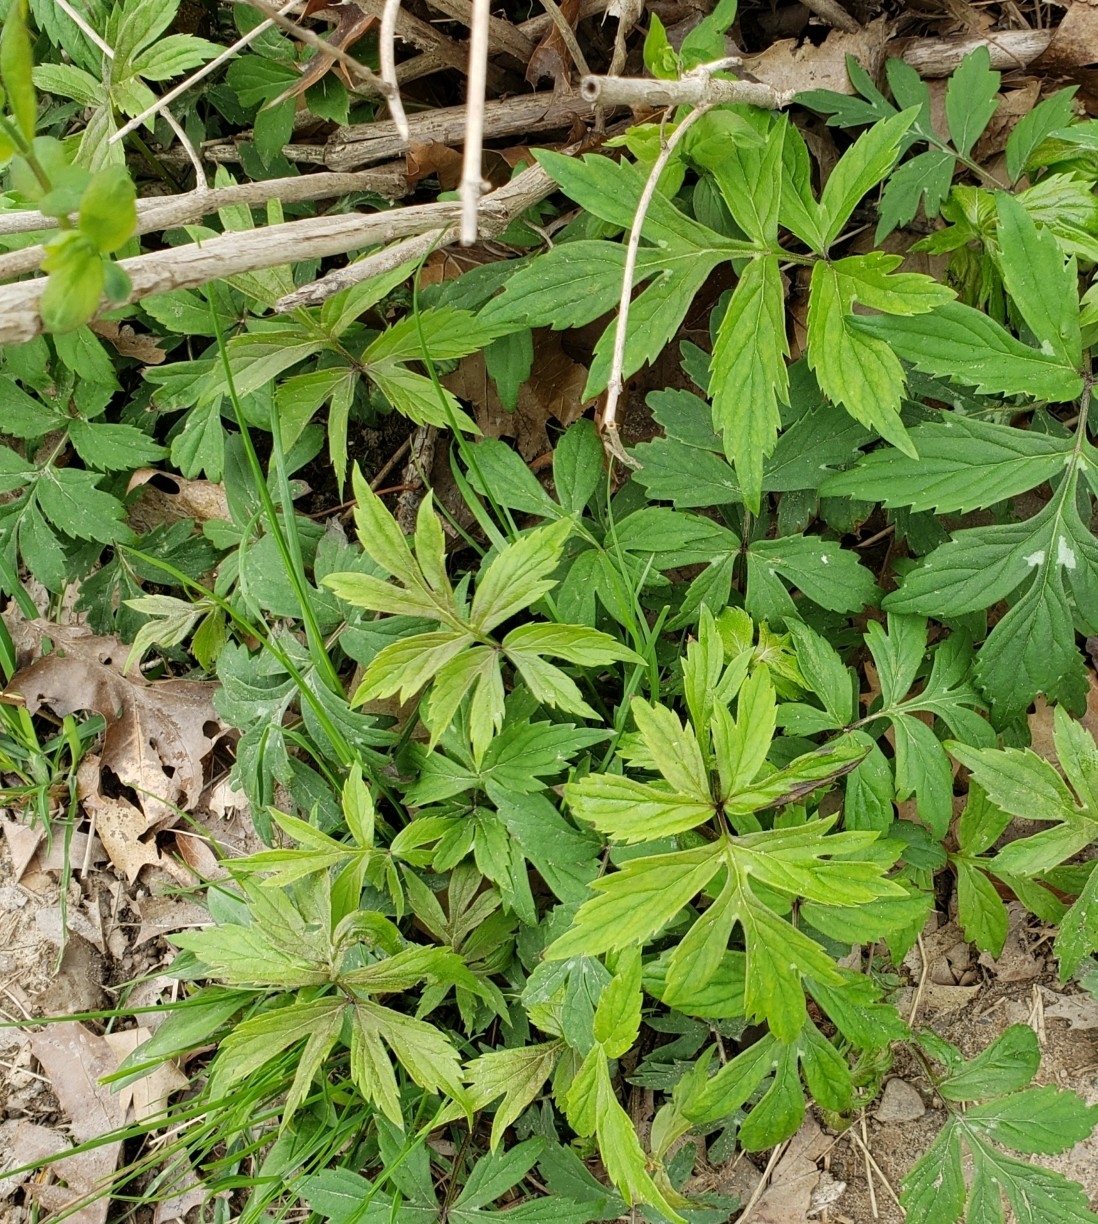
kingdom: Plantae
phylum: Tracheophyta
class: Magnoliopsida
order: Asterales
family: Asteraceae
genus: Rudbeckia
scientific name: Rudbeckia laciniata
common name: Coneflower
